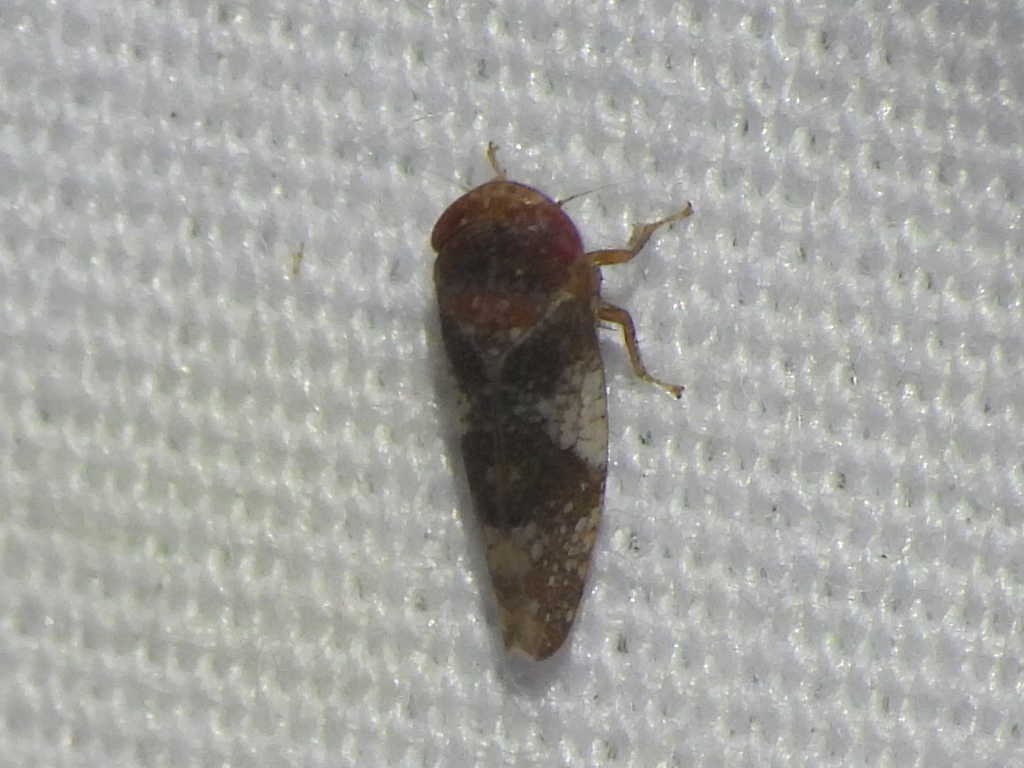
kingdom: Animalia
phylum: Arthropoda
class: Insecta
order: Hemiptera
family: Cicadellidae
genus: Norvellina
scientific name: Norvellina helenae
